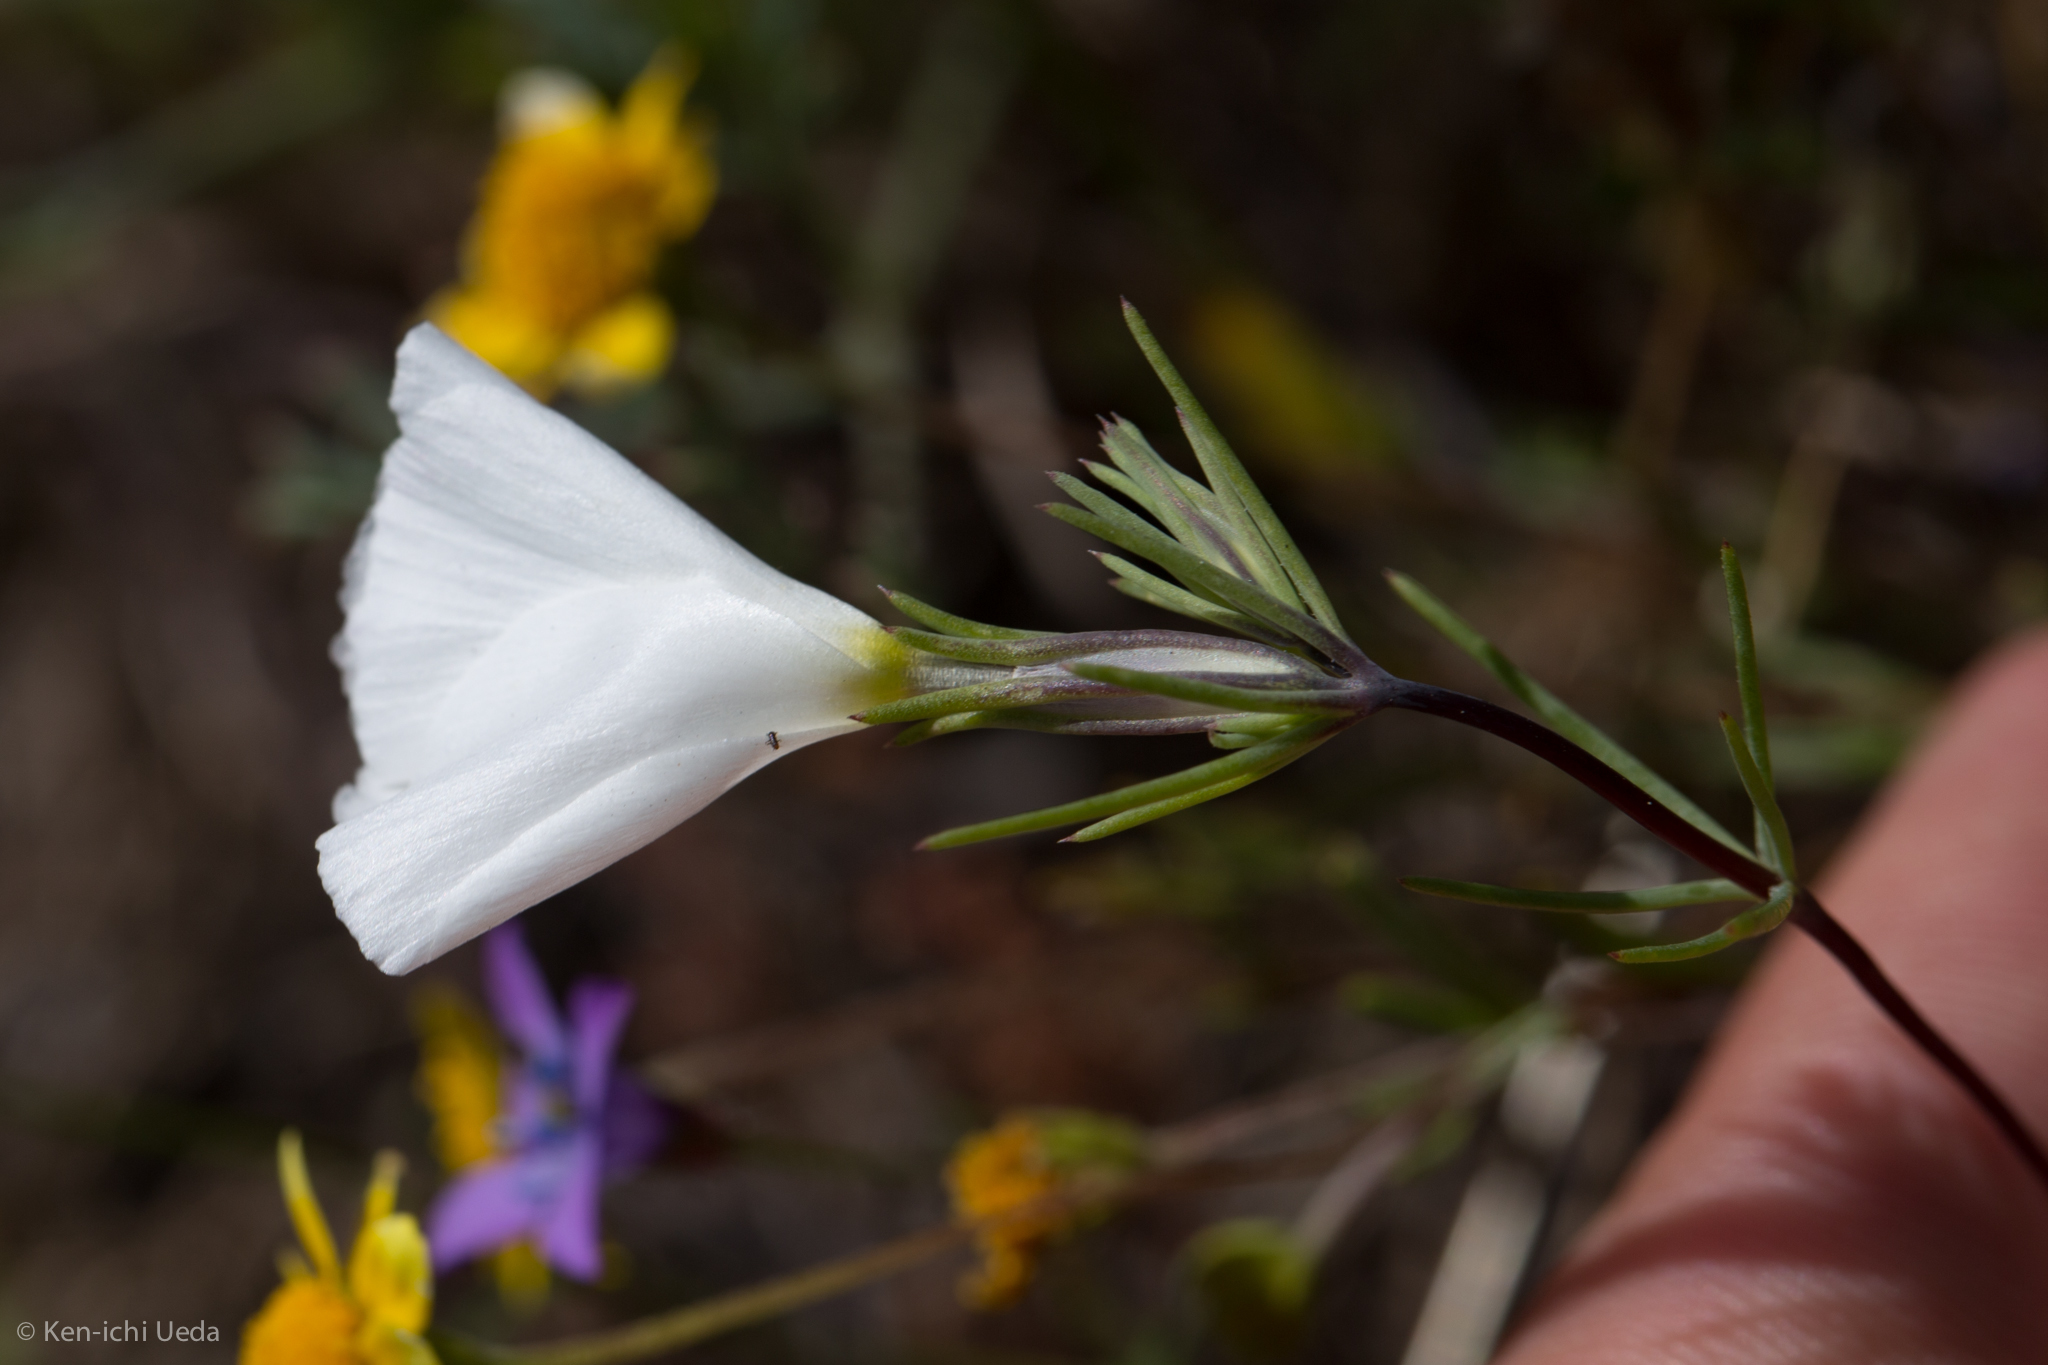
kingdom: Plantae
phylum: Tracheophyta
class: Magnoliopsida
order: Ericales
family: Polemoniaceae
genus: Linanthus
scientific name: Linanthus dichotomus
